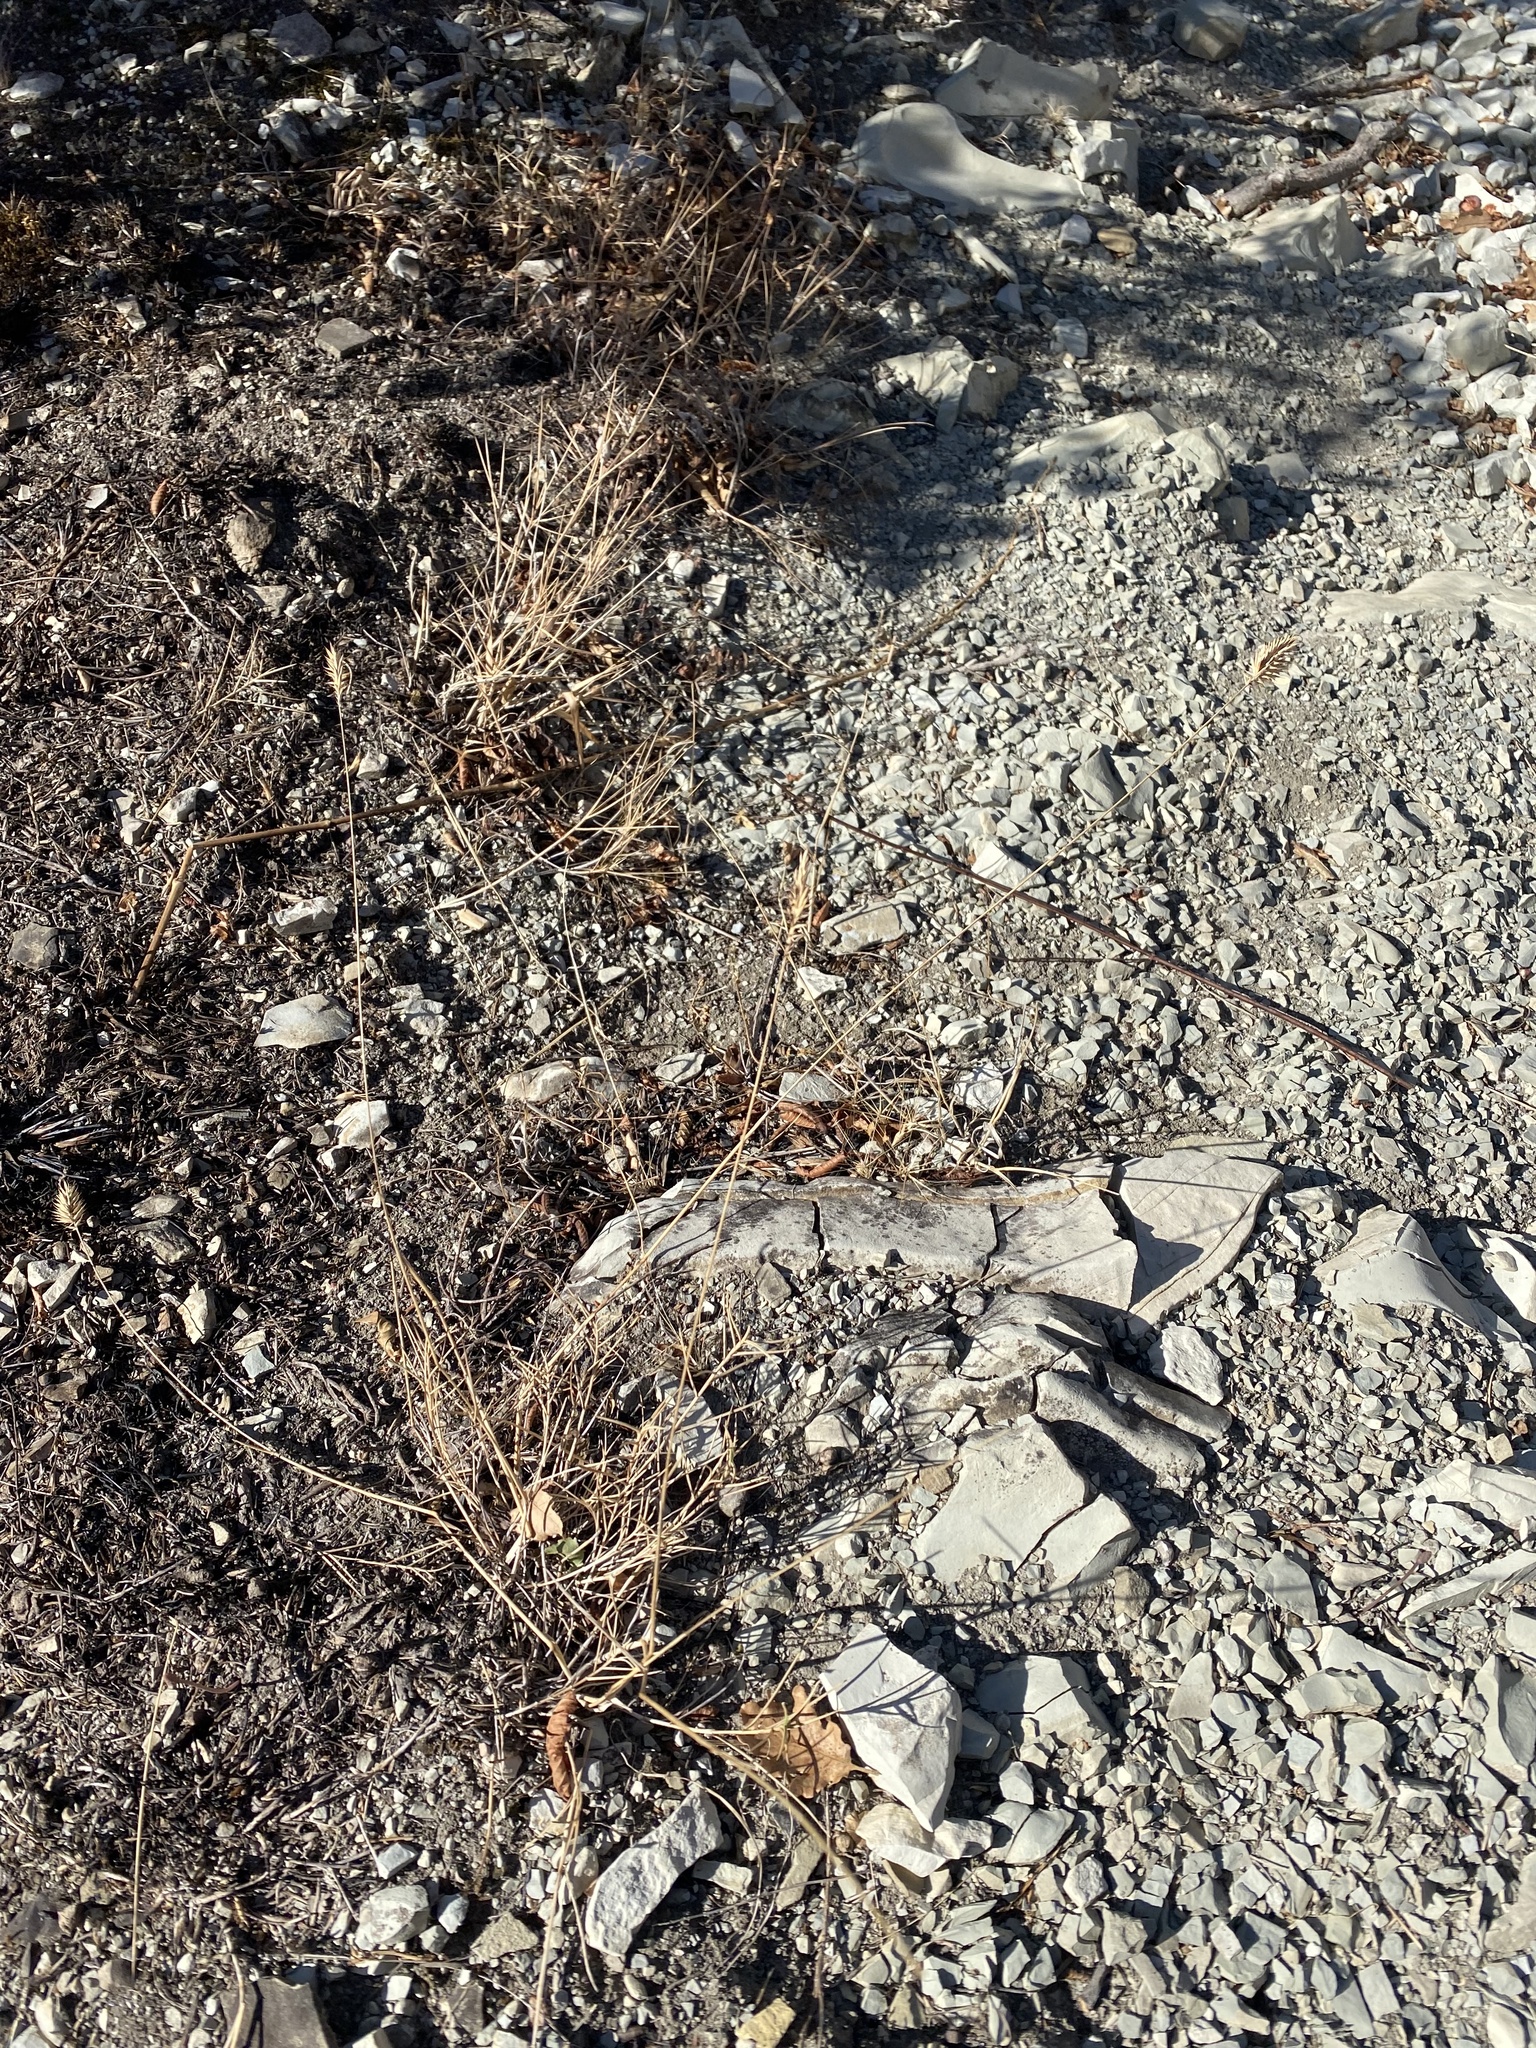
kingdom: Plantae
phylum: Tracheophyta
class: Liliopsida
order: Poales
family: Poaceae
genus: Agropyron
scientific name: Agropyron cristatum
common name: Crested wheatgrass
